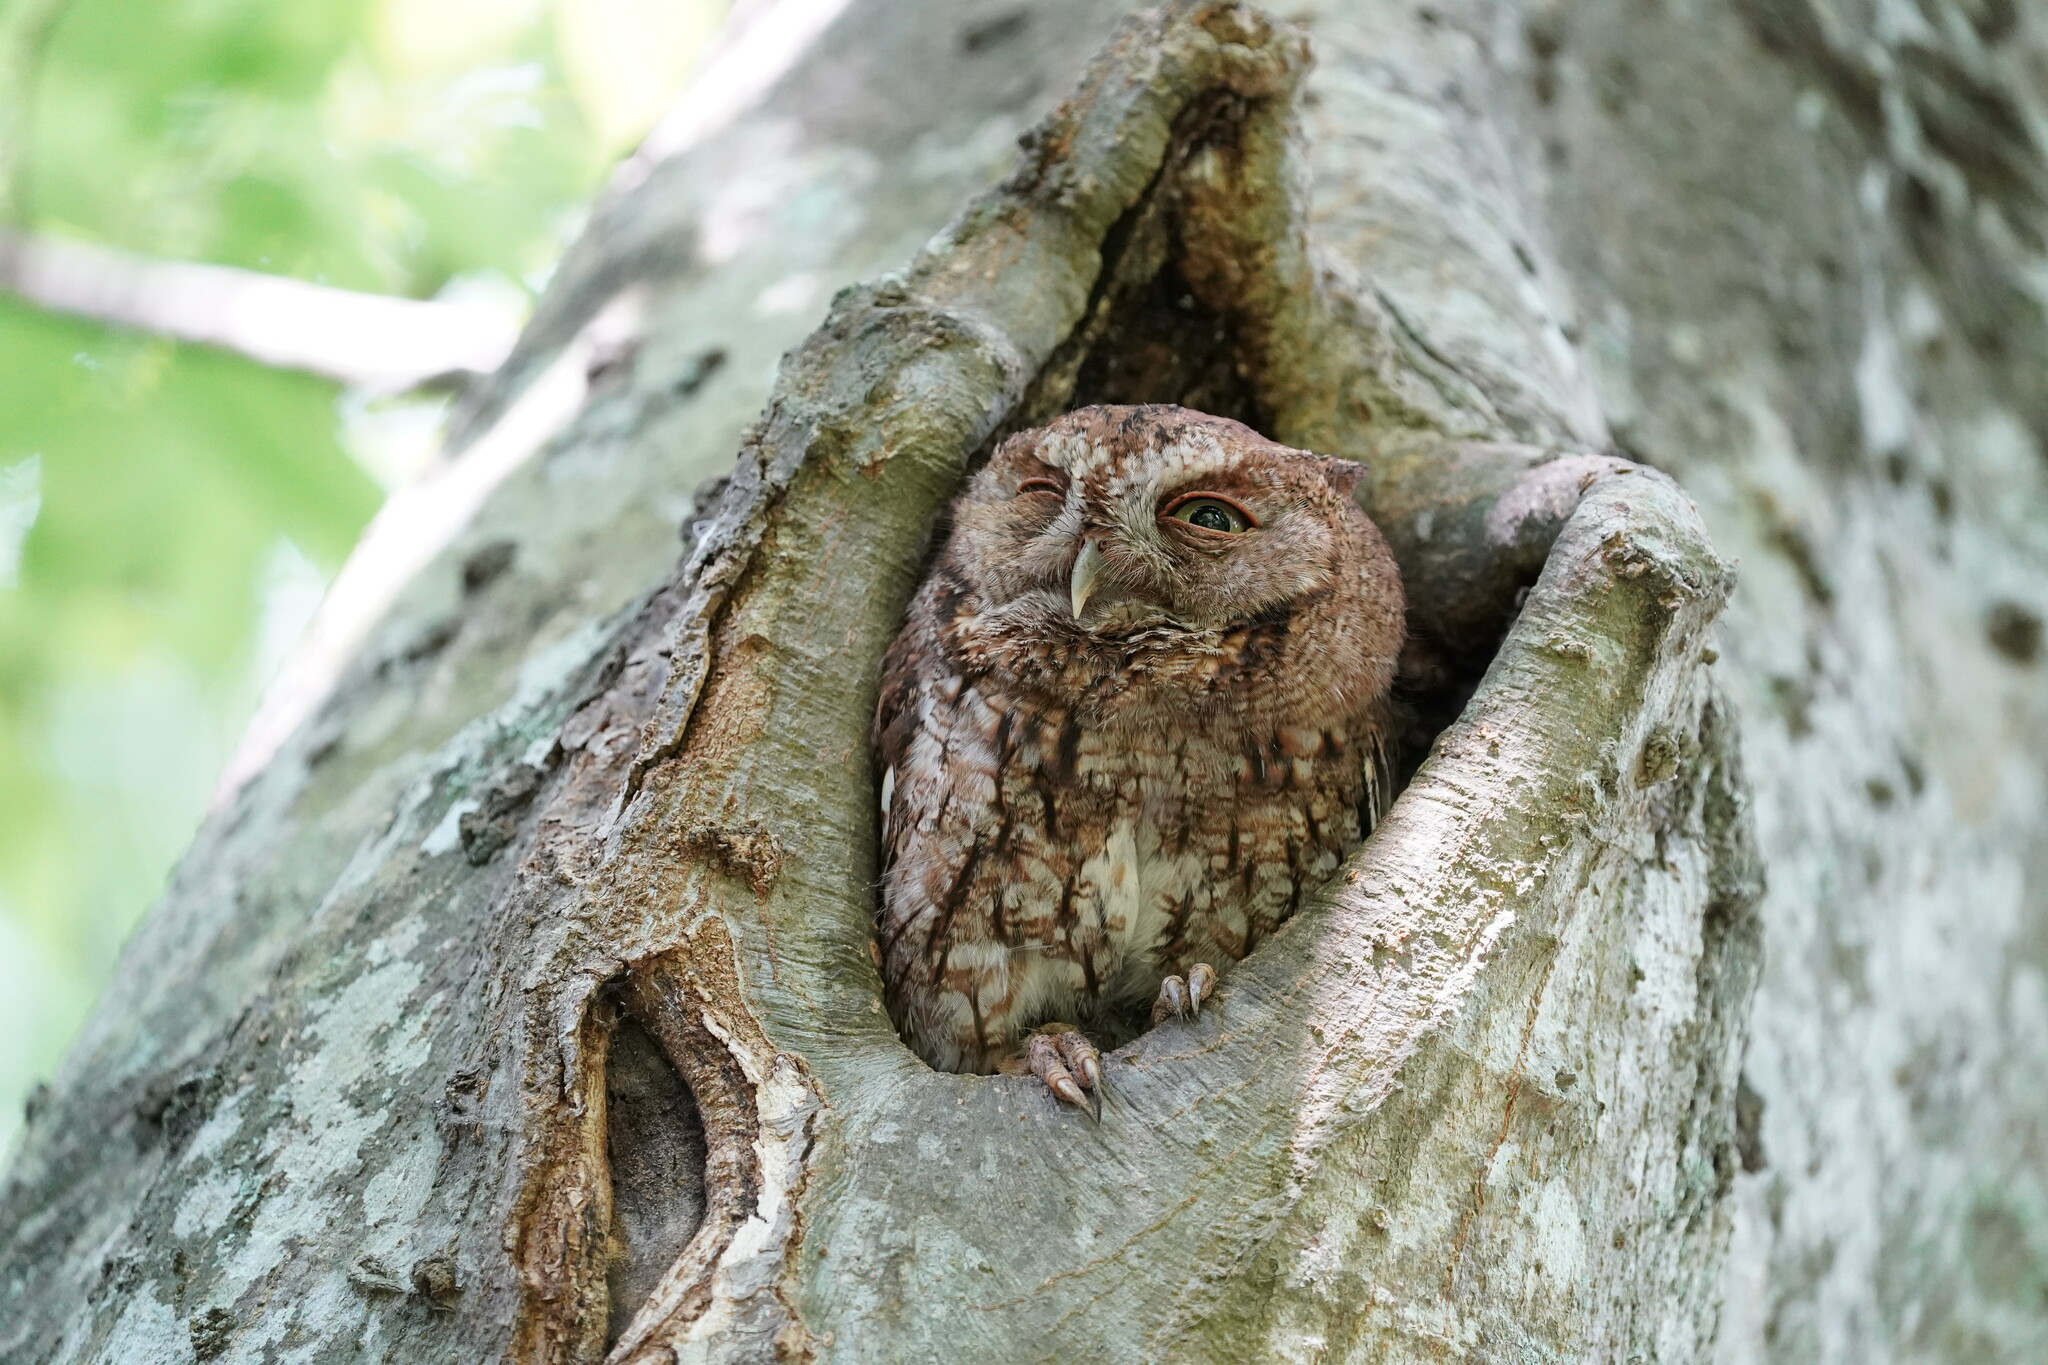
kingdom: Animalia
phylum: Chordata
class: Aves
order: Strigiformes
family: Strigidae
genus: Megascops
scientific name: Megascops asio
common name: Eastern screech-owl
